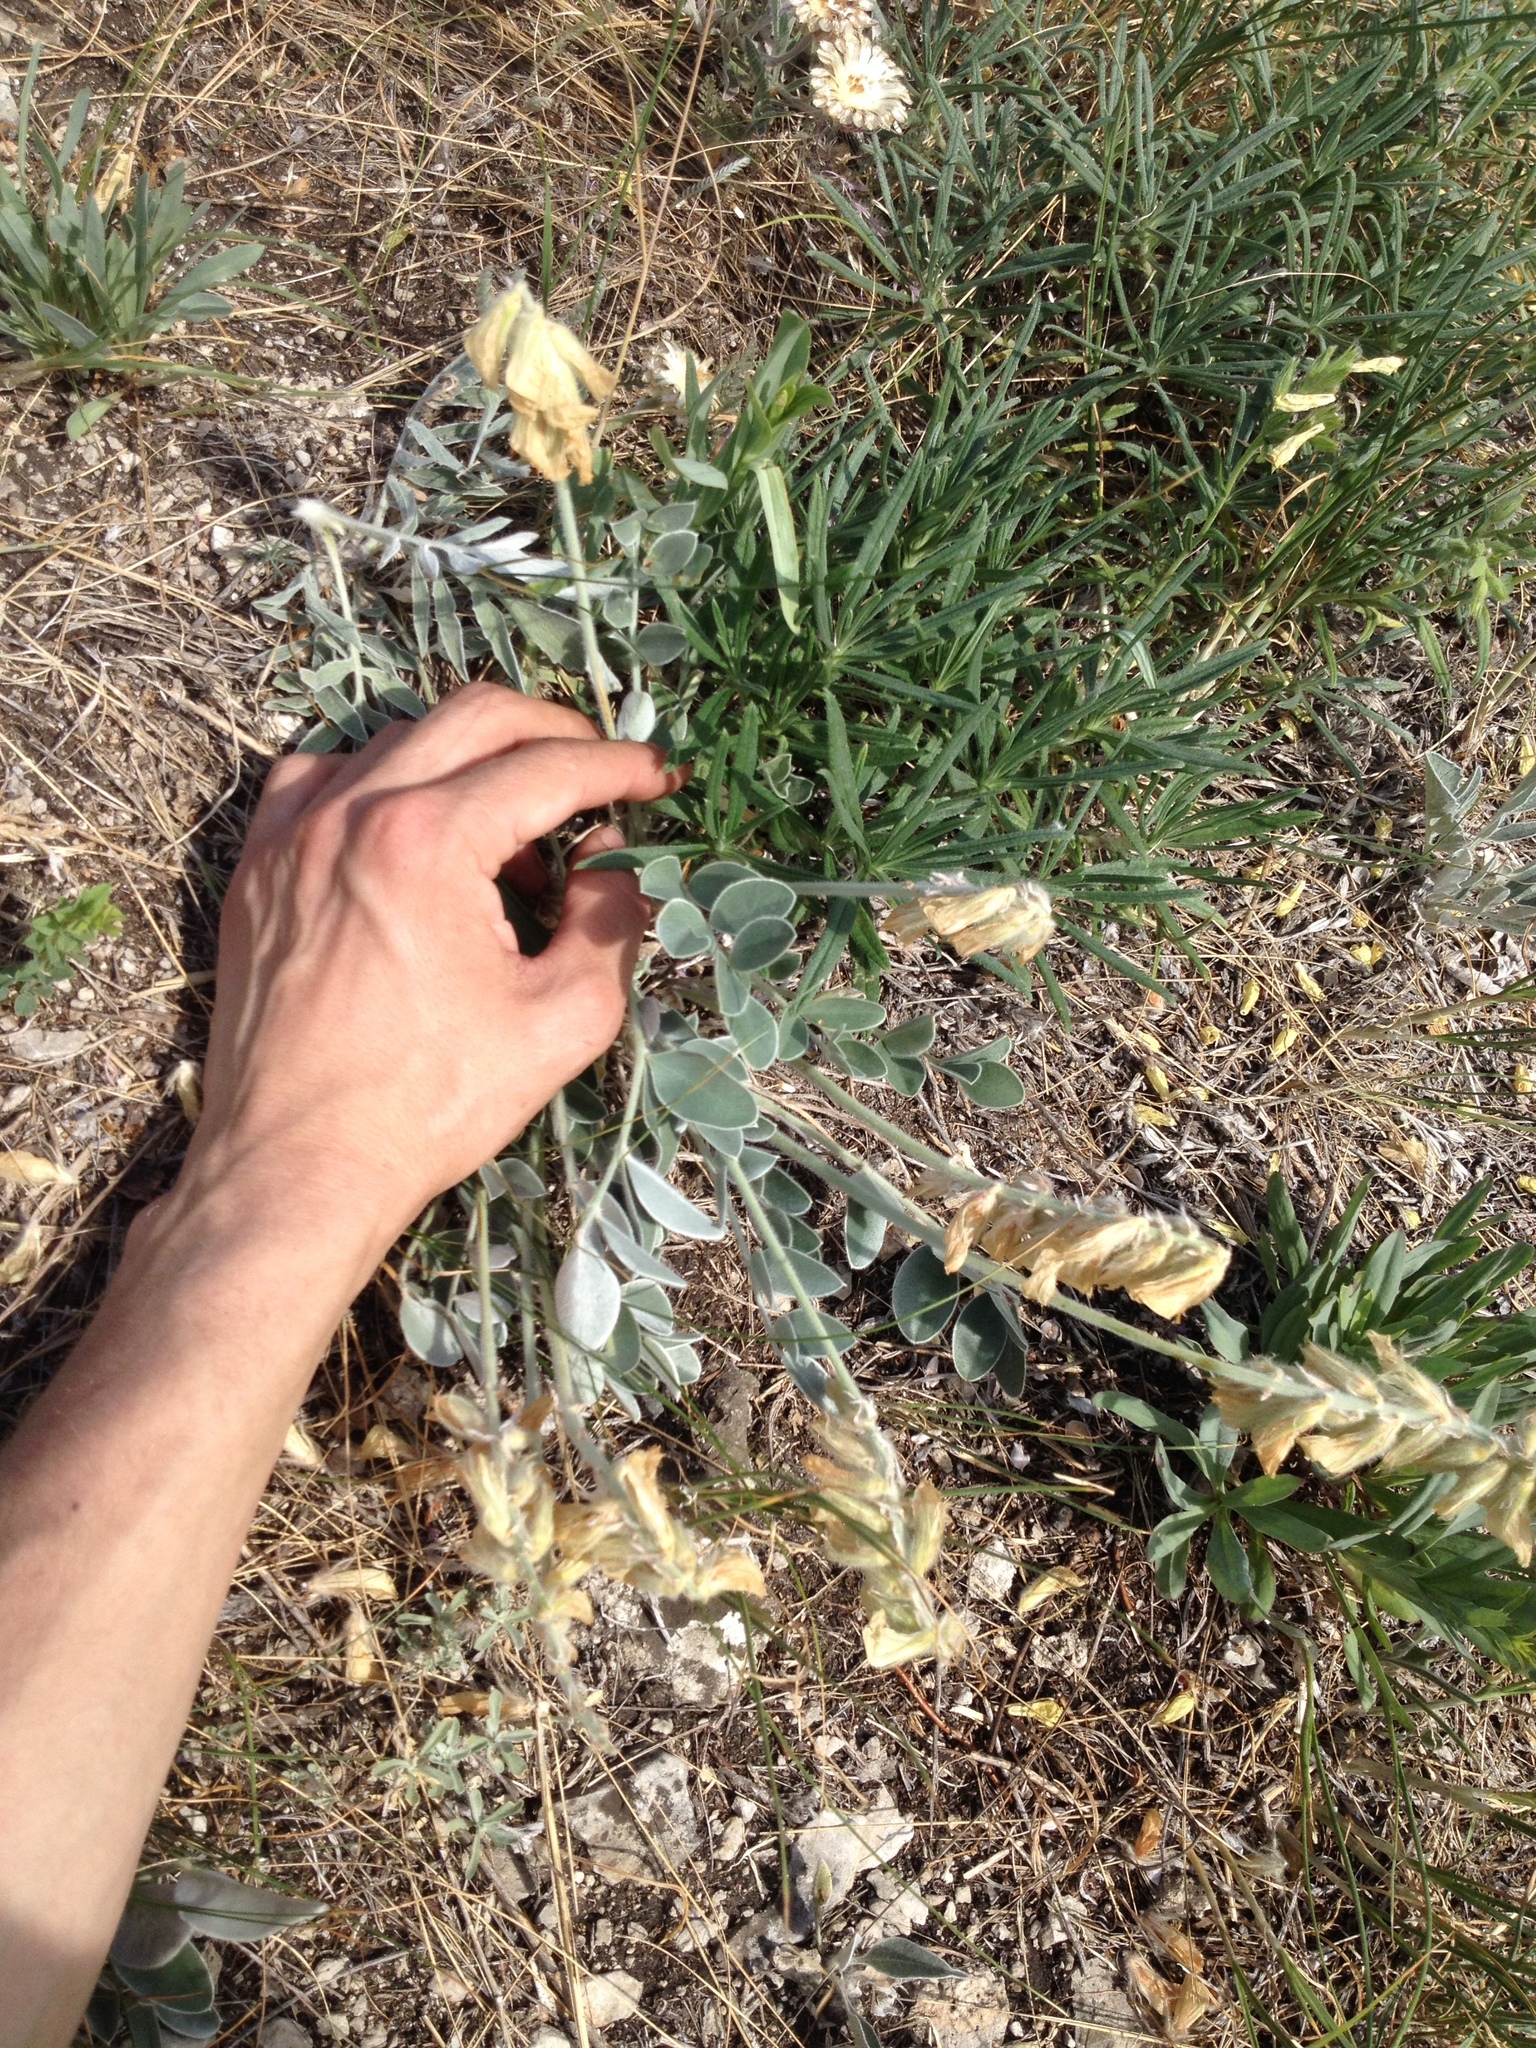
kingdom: Plantae
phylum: Tracheophyta
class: Magnoliopsida
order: Fabales
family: Fabaceae
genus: Hedysarum
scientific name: Hedysarum grandiflorum
